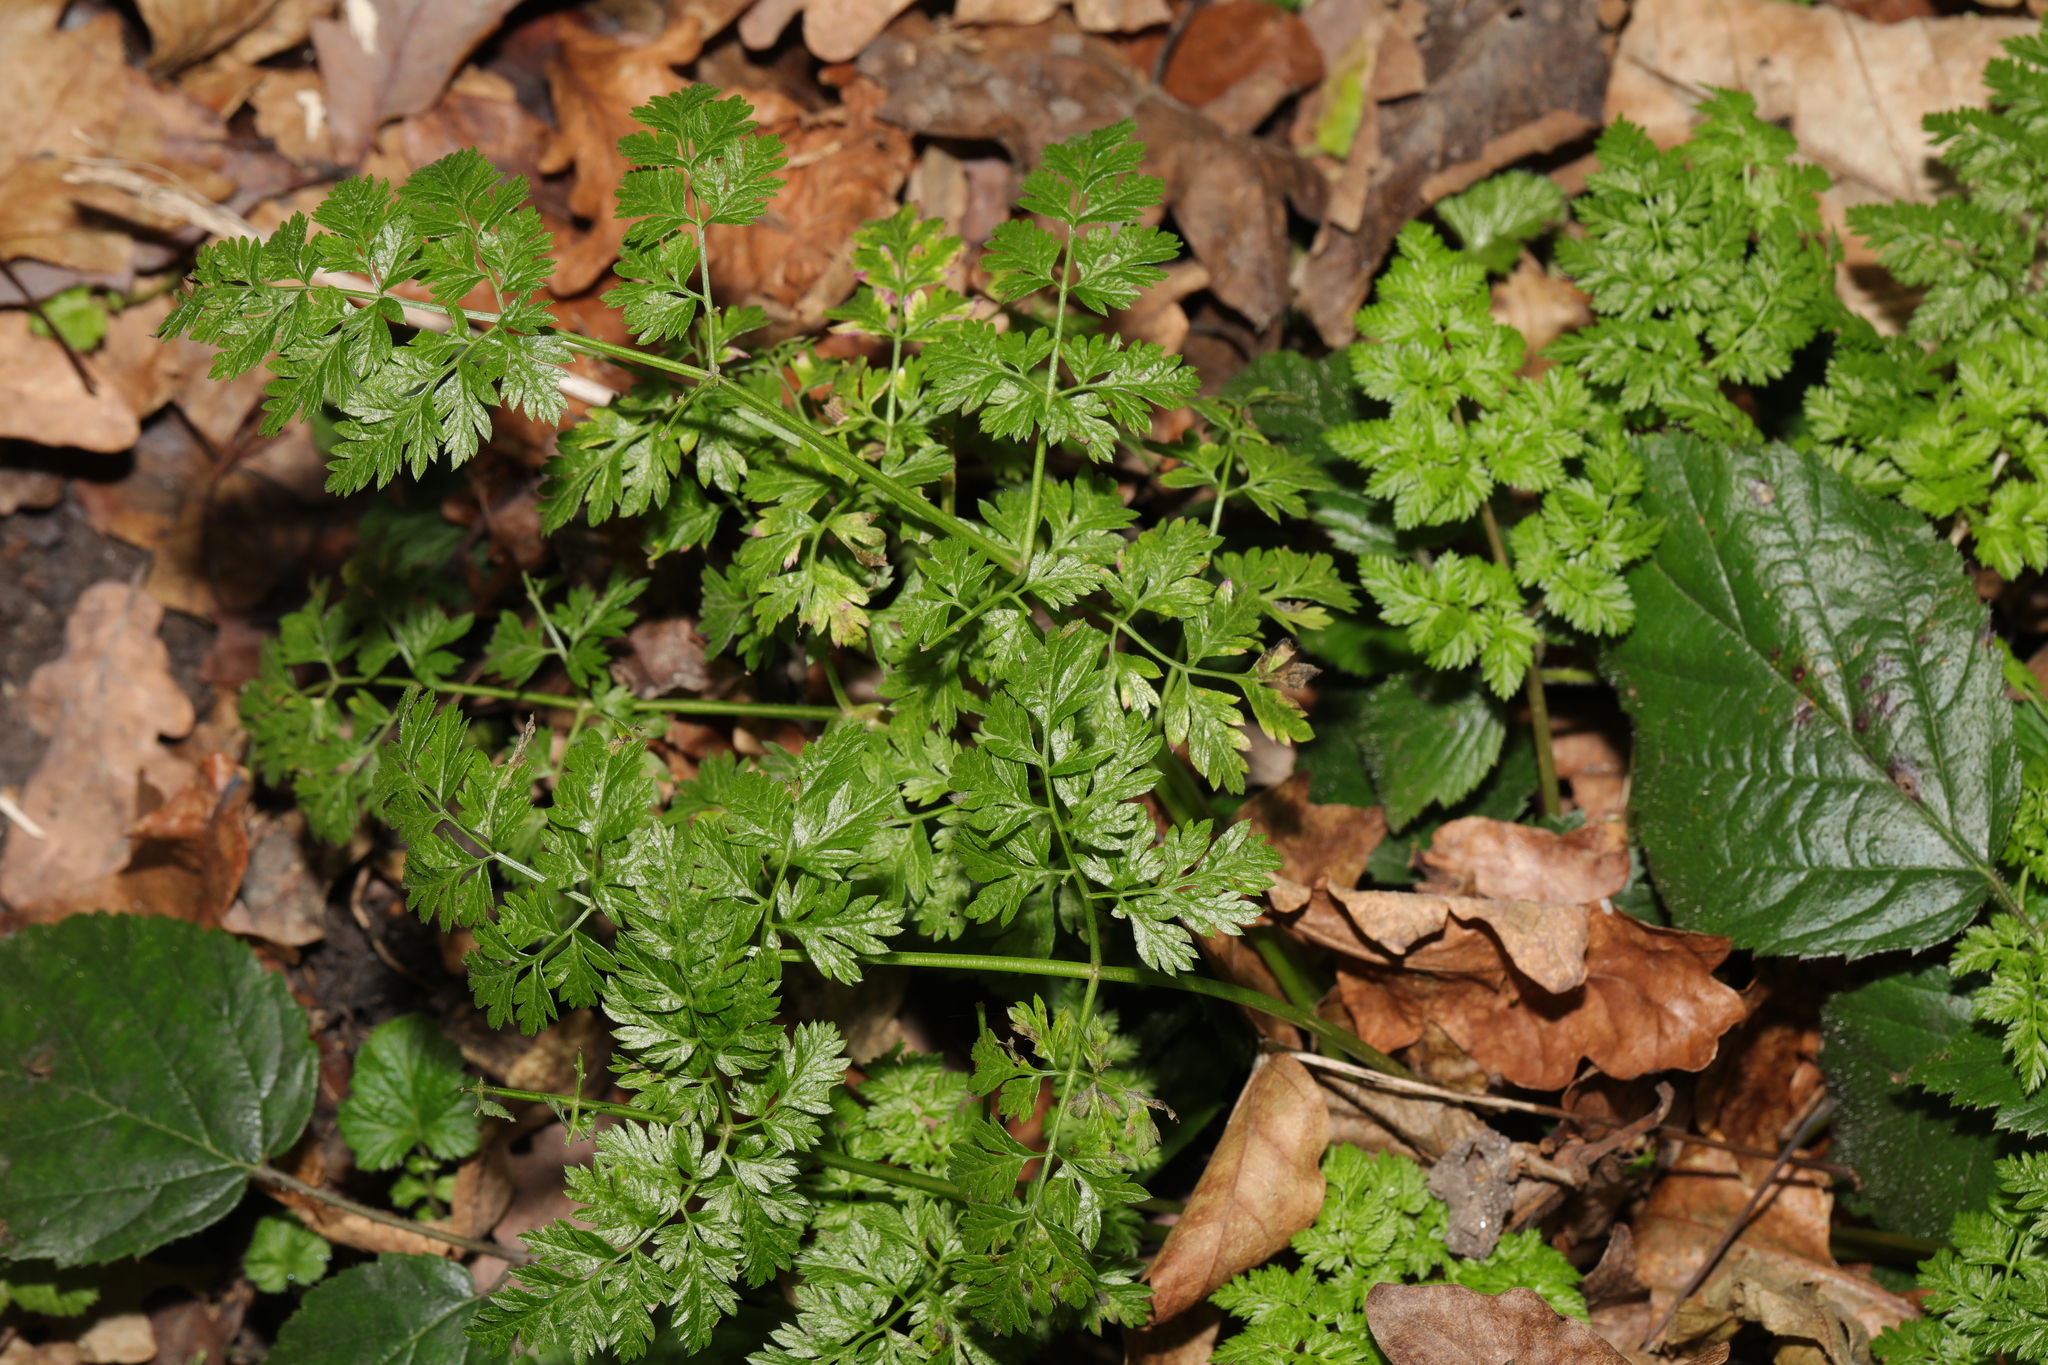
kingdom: Plantae
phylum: Tracheophyta
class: Magnoliopsida
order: Apiales
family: Apiaceae
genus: Anthriscus
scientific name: Anthriscus sylvestris
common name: Cow parsley
